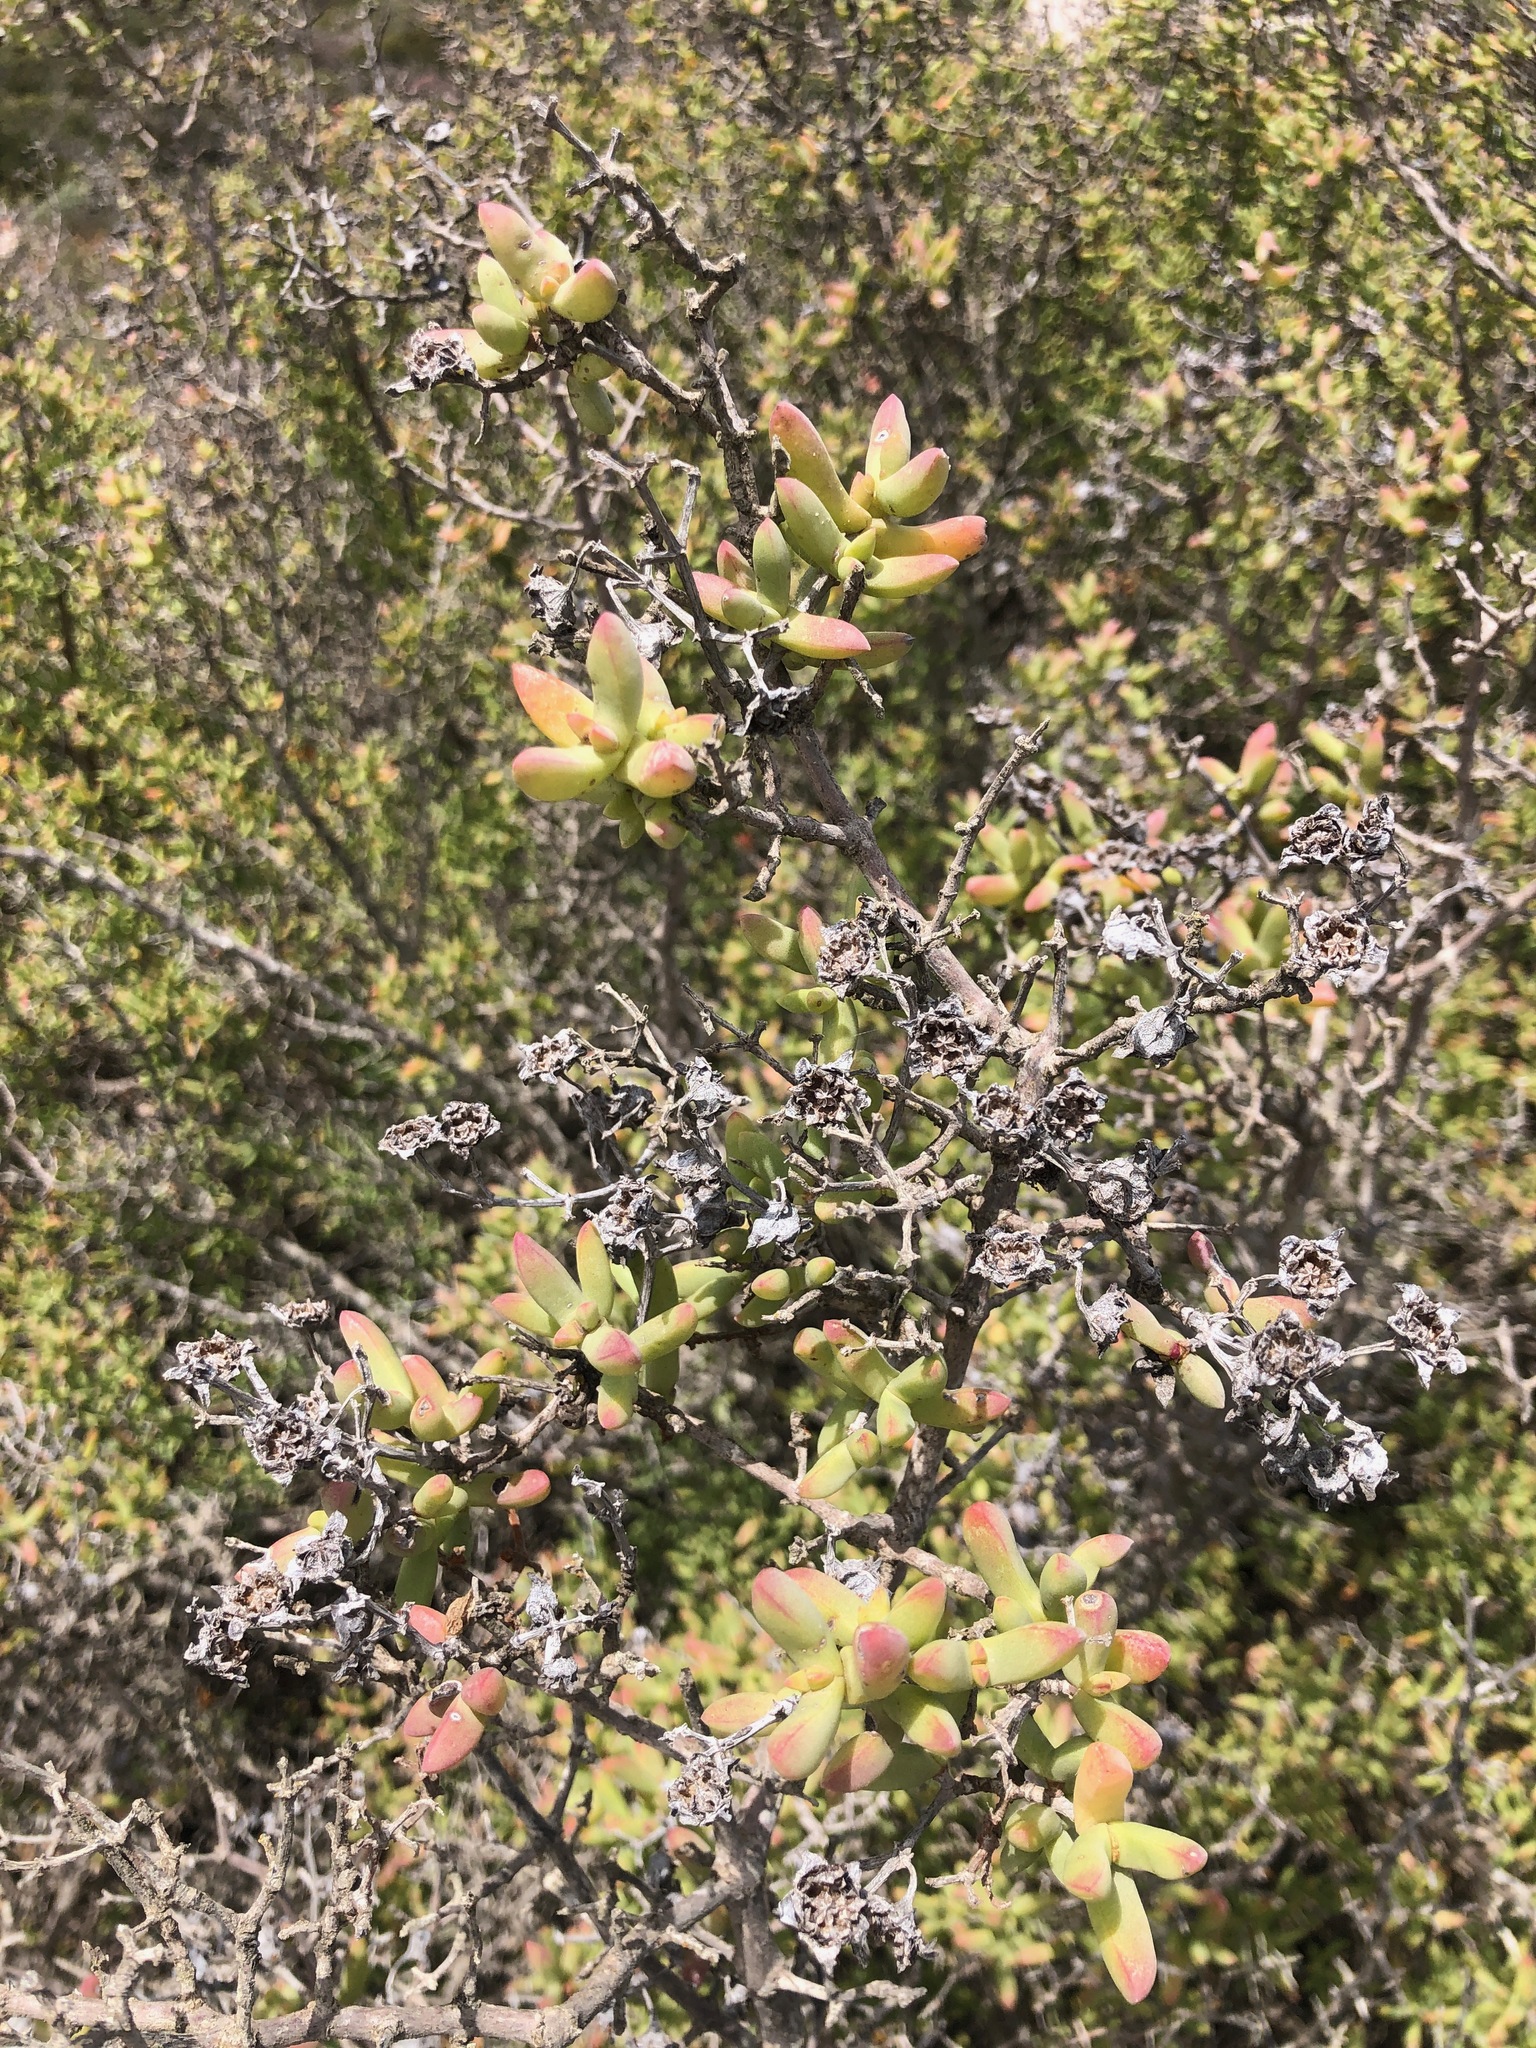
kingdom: Plantae
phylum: Tracheophyta
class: Magnoliopsida
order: Caryophyllales
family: Aizoaceae
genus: Ruschia
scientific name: Ruschia macowanii
